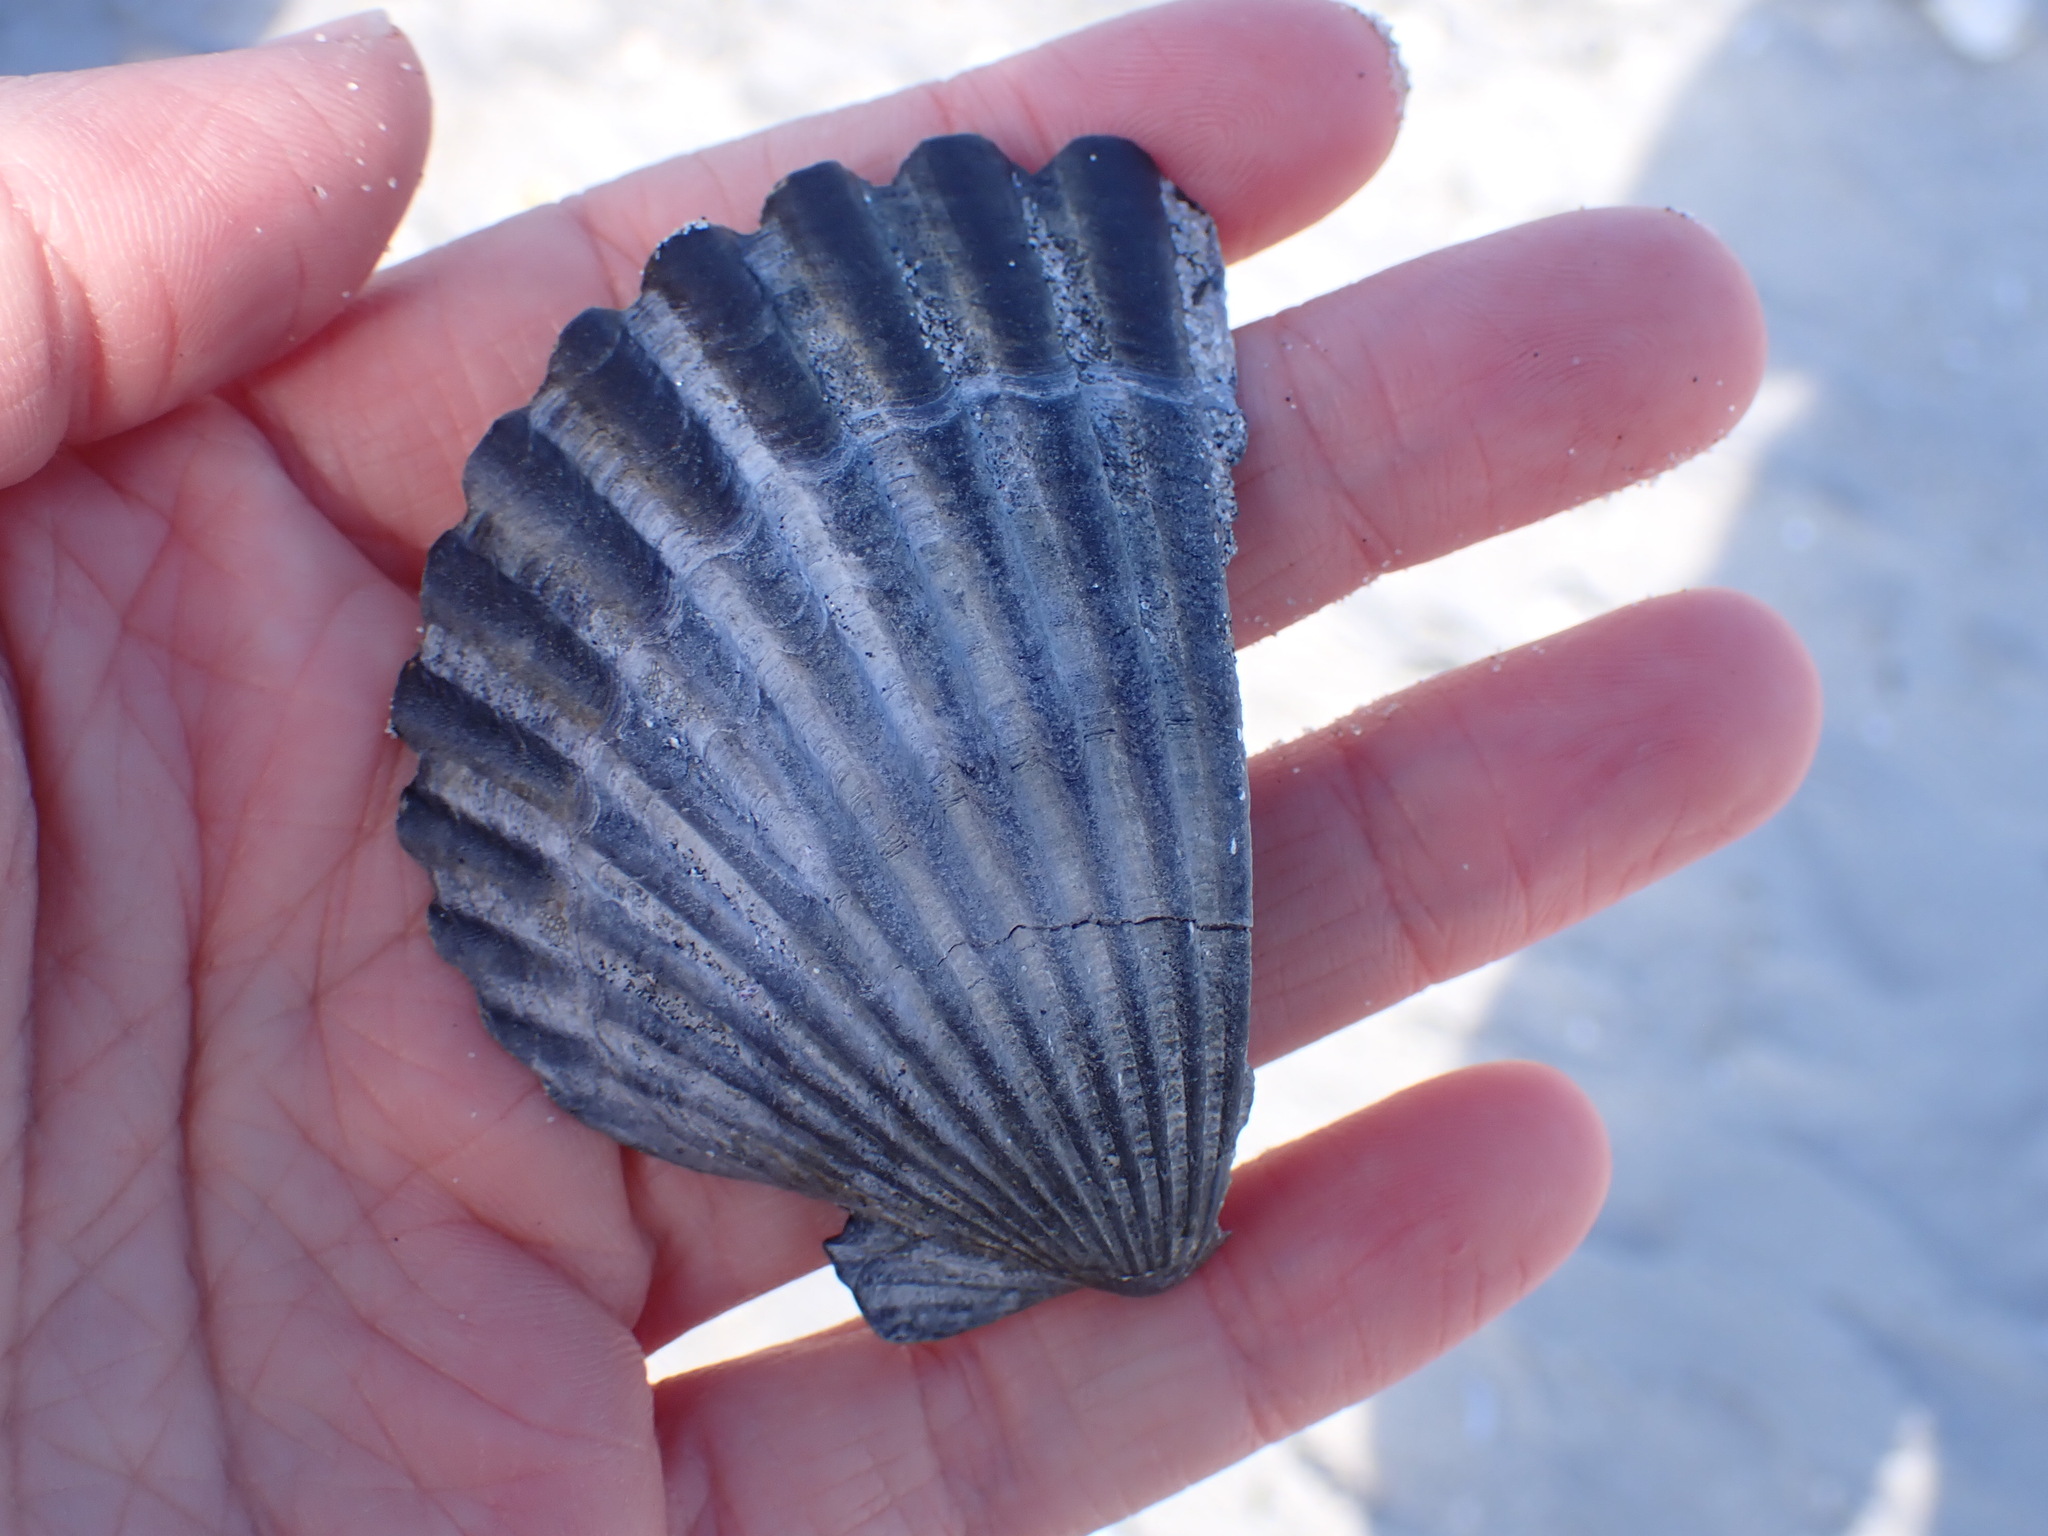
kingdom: Animalia
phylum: Mollusca
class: Bivalvia
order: Pectinida
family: Pectinidae
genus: Argopecten
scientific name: Argopecten irradians
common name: Atlantic bay scallop
